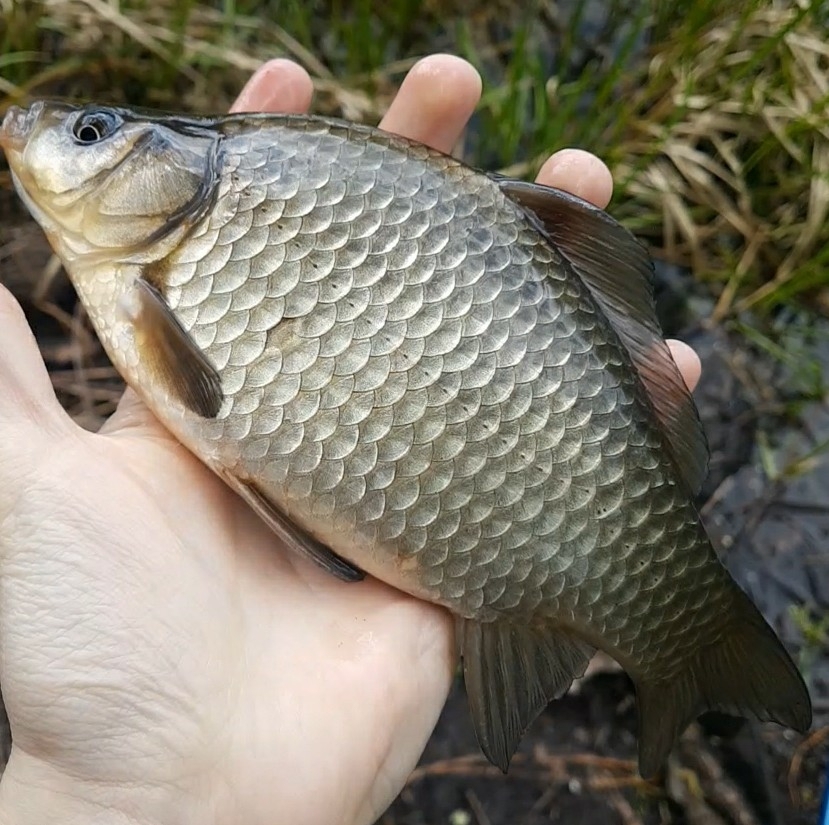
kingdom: Animalia
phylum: Chordata
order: Cypriniformes
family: Cyprinidae
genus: Carassius
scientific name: Carassius gibelio
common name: Prussian carp
